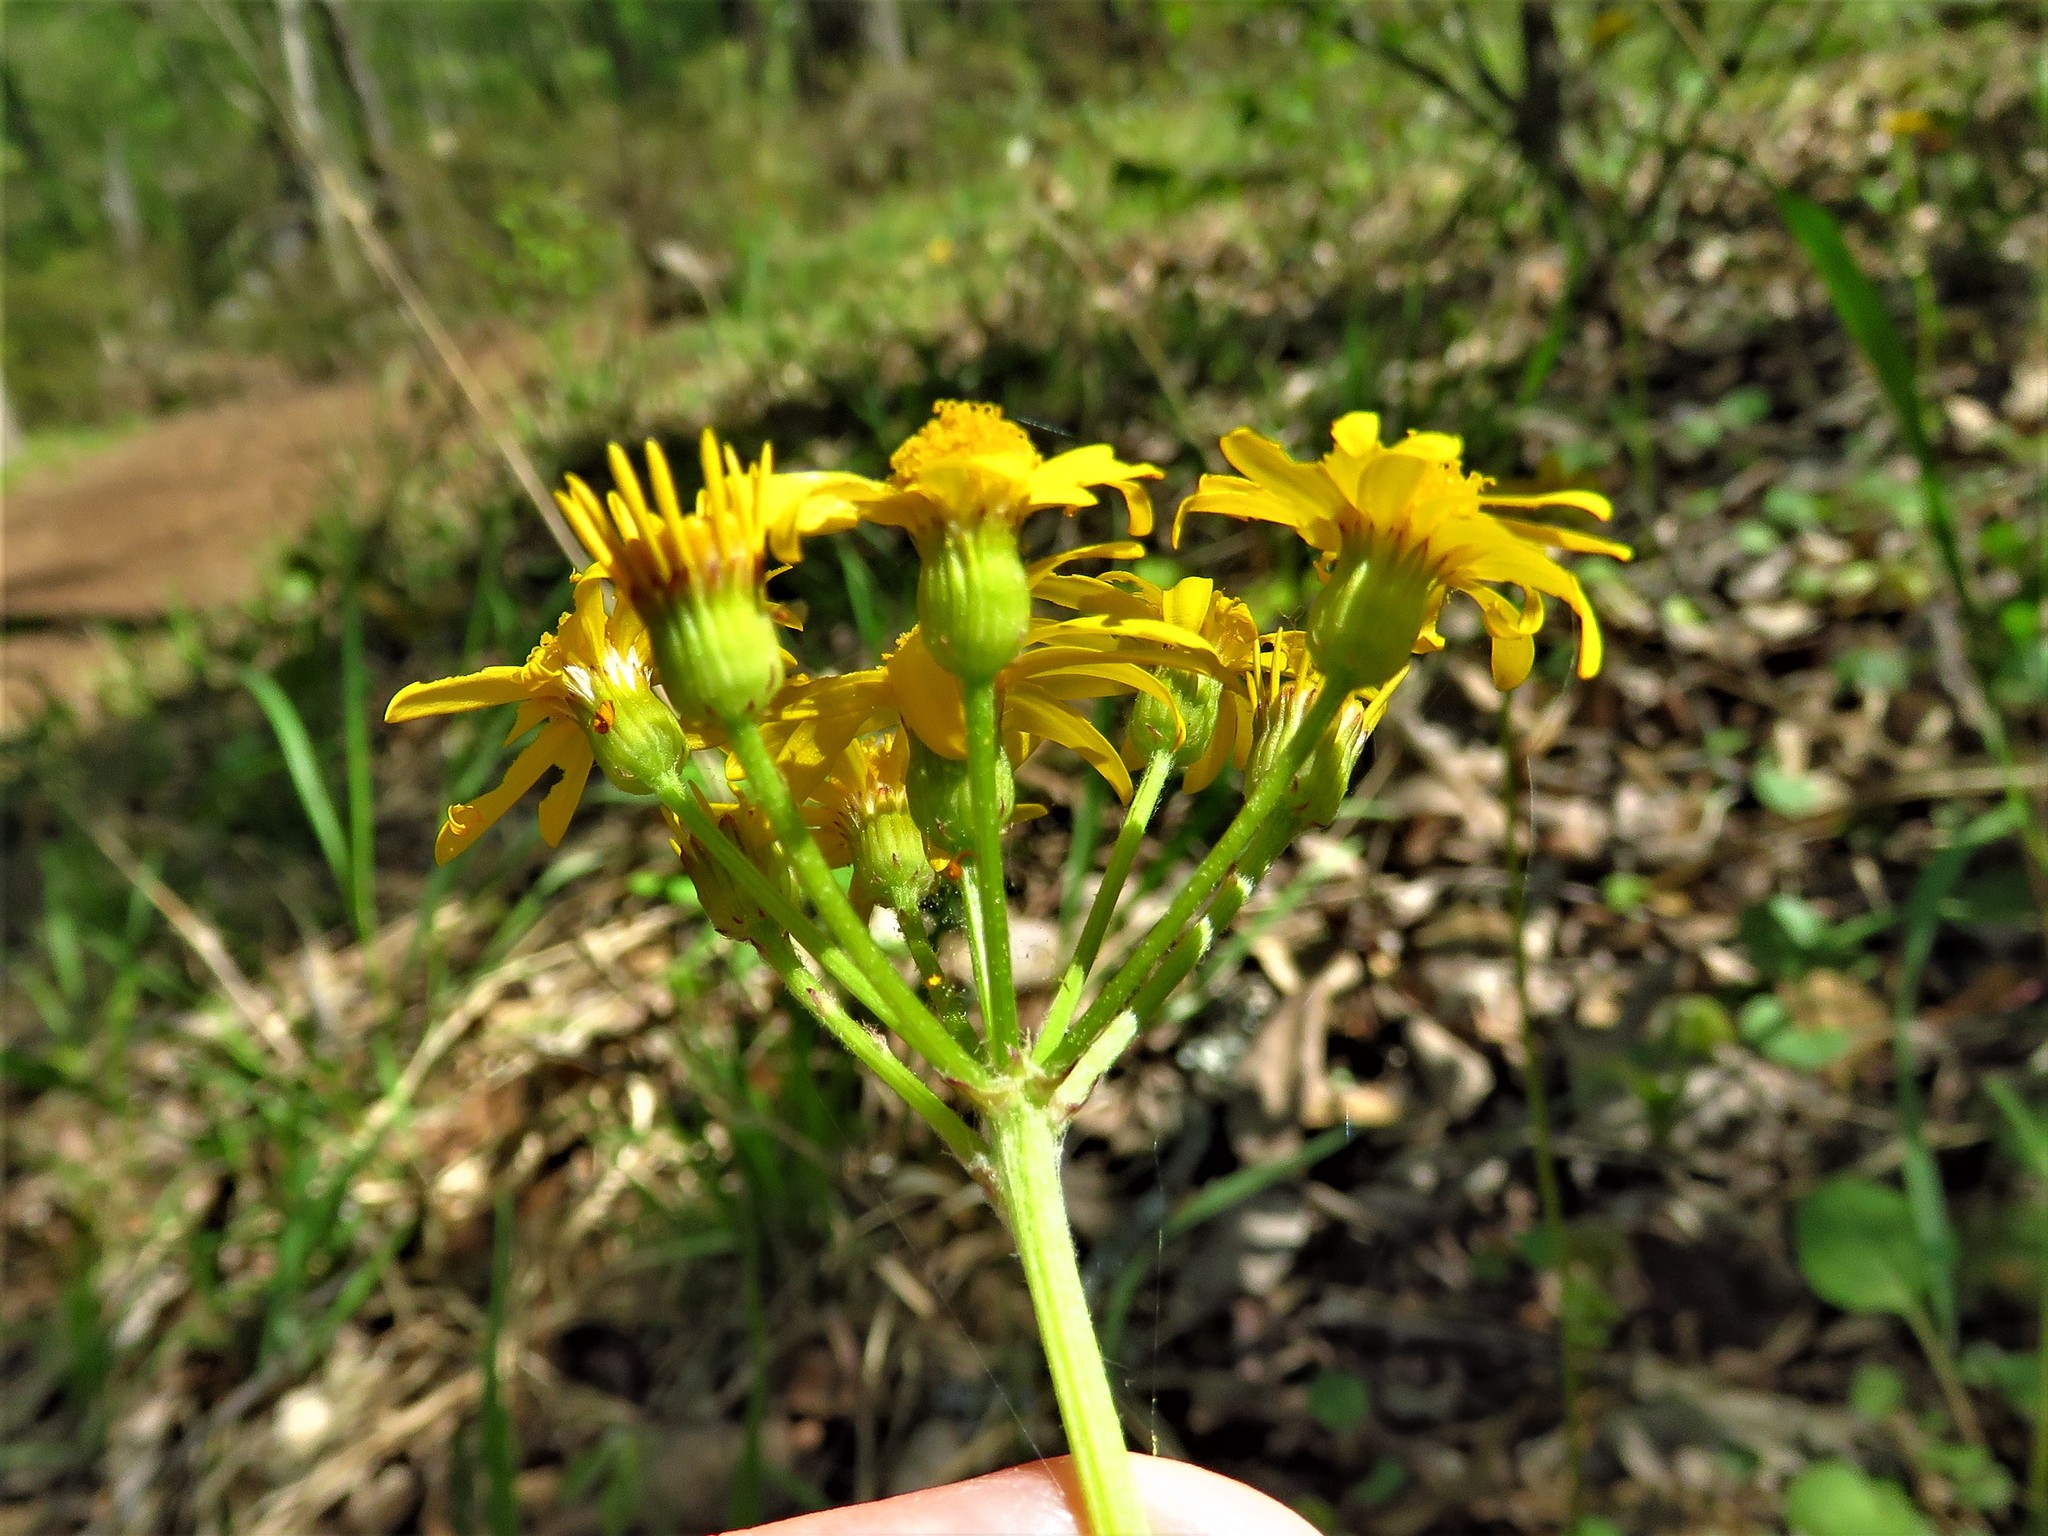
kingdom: Plantae
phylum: Tracheophyta
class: Magnoliopsida
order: Asterales
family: Asteraceae
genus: Packera
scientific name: Packera obovata
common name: Round-leaf ragwort
